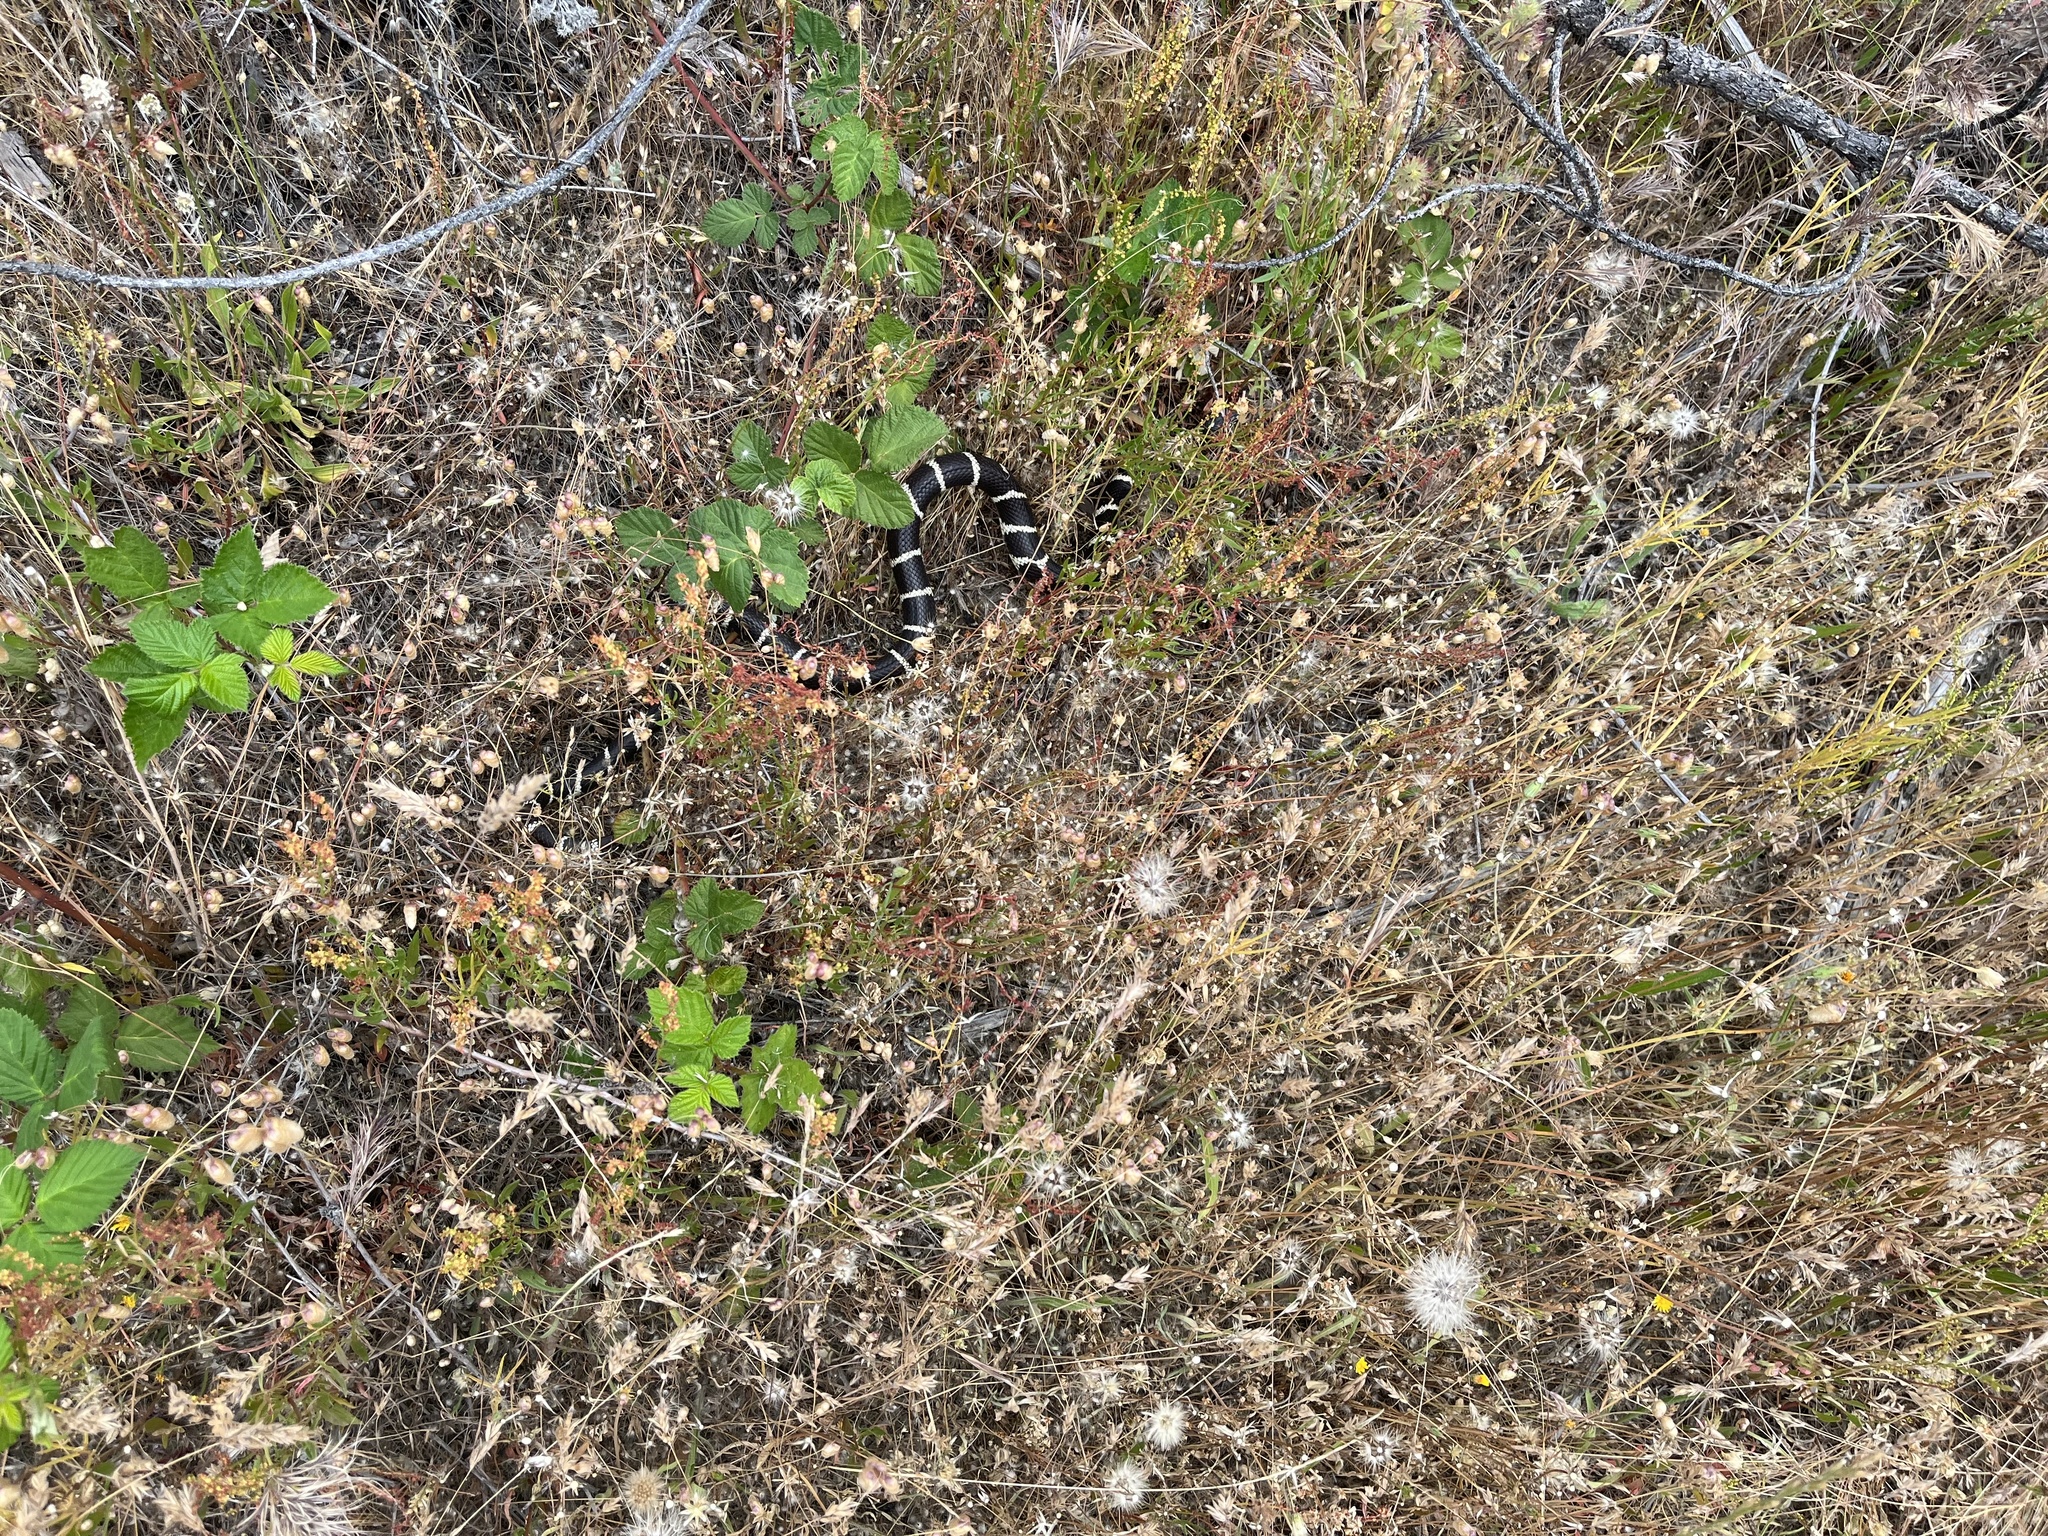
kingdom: Animalia
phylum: Chordata
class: Squamata
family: Colubridae
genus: Lampropeltis
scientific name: Lampropeltis californiae
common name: California kingsnake
